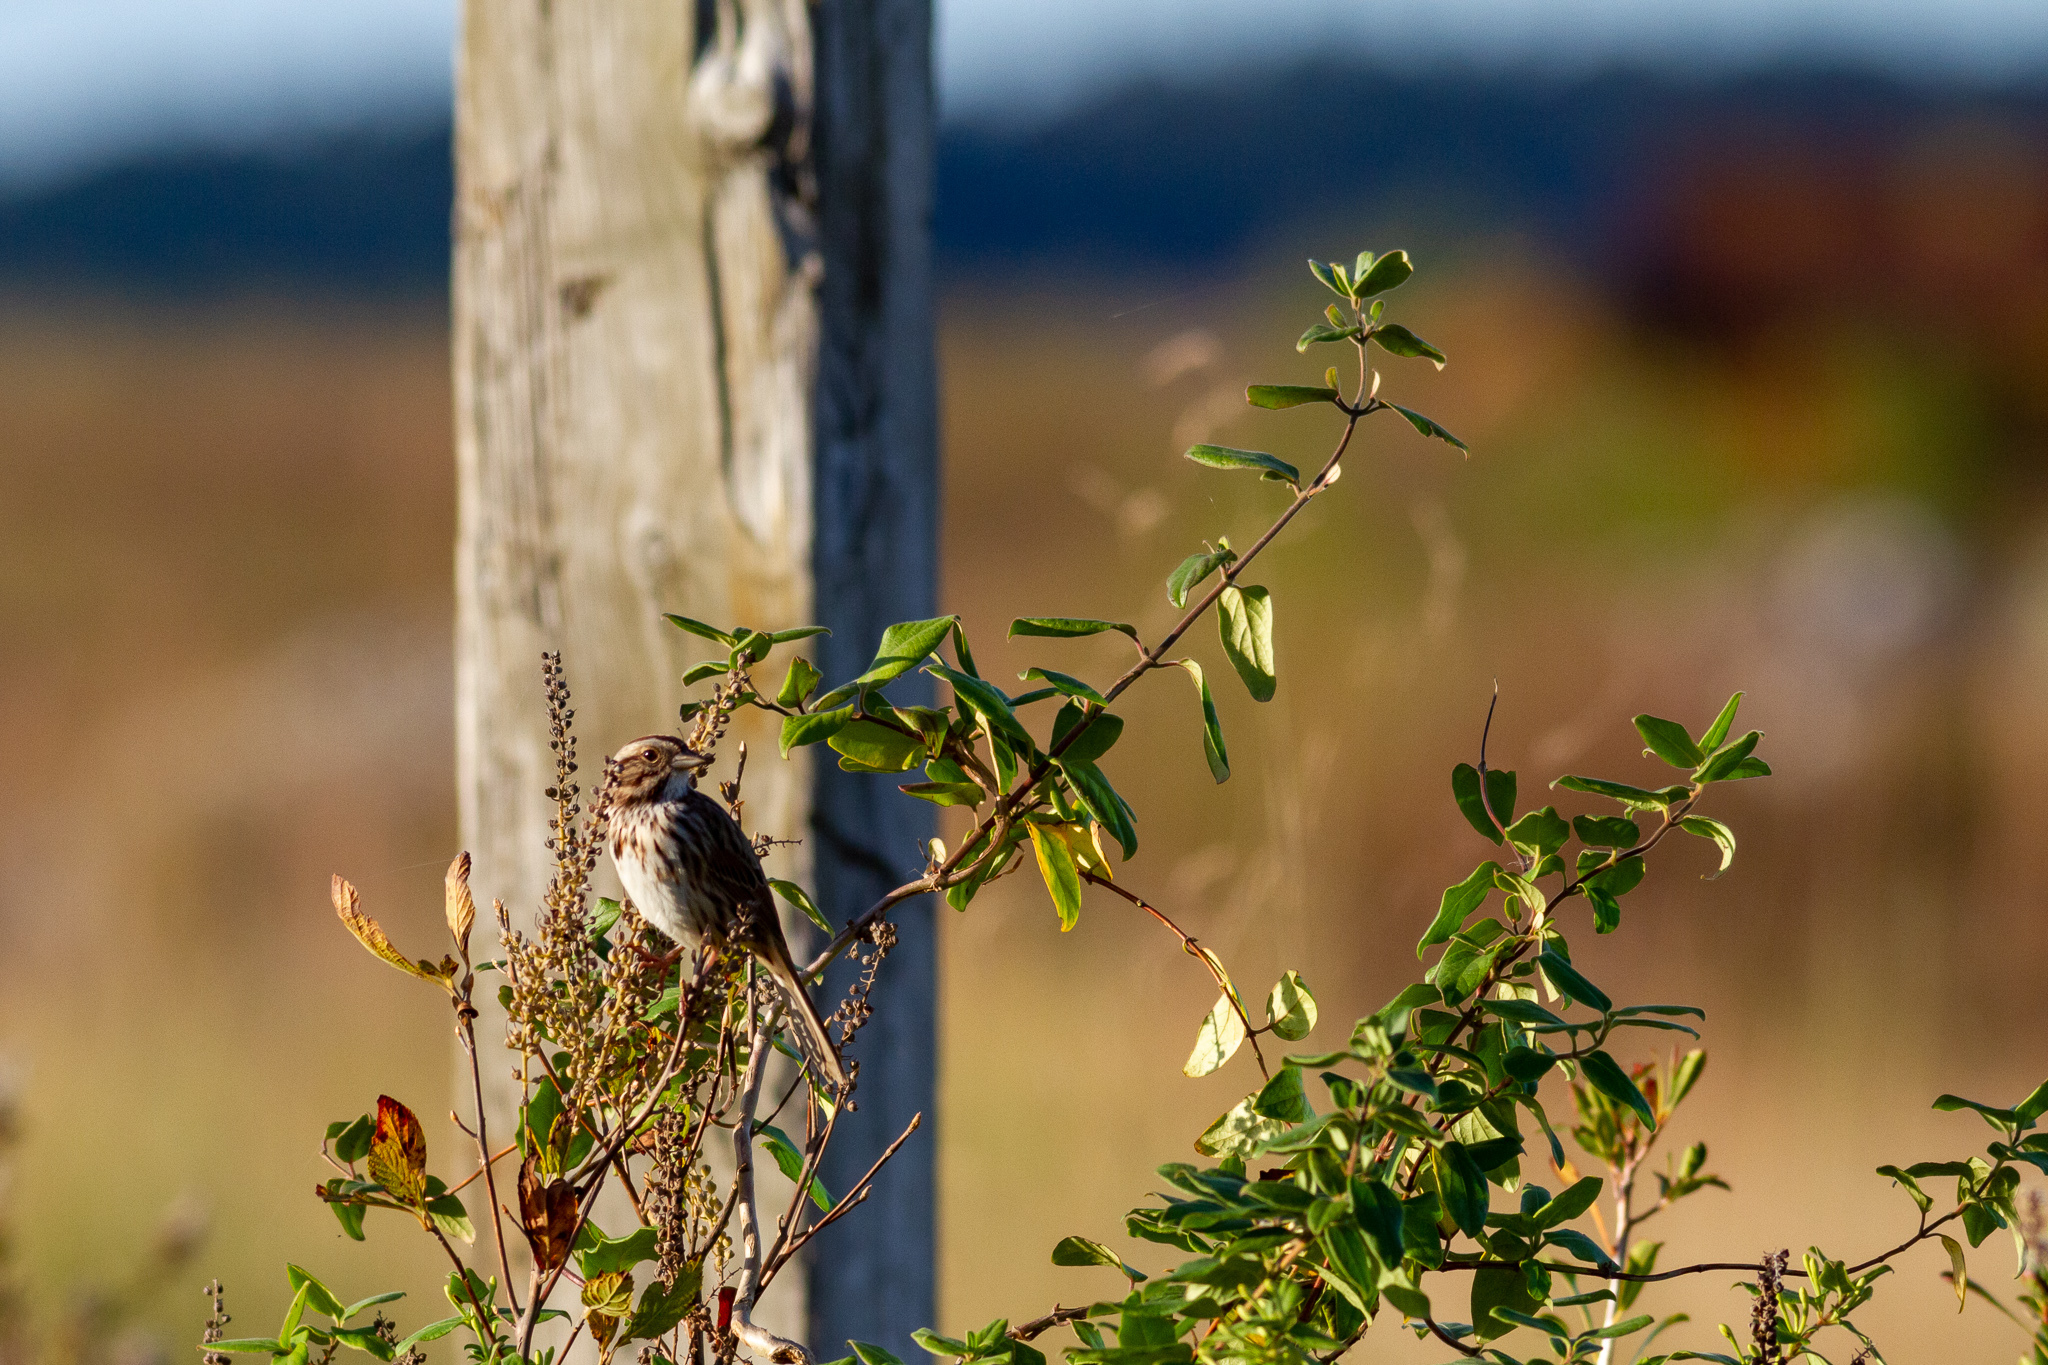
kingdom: Animalia
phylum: Chordata
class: Aves
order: Passeriformes
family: Passerellidae
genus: Melospiza
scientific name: Melospiza melodia
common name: Song sparrow
